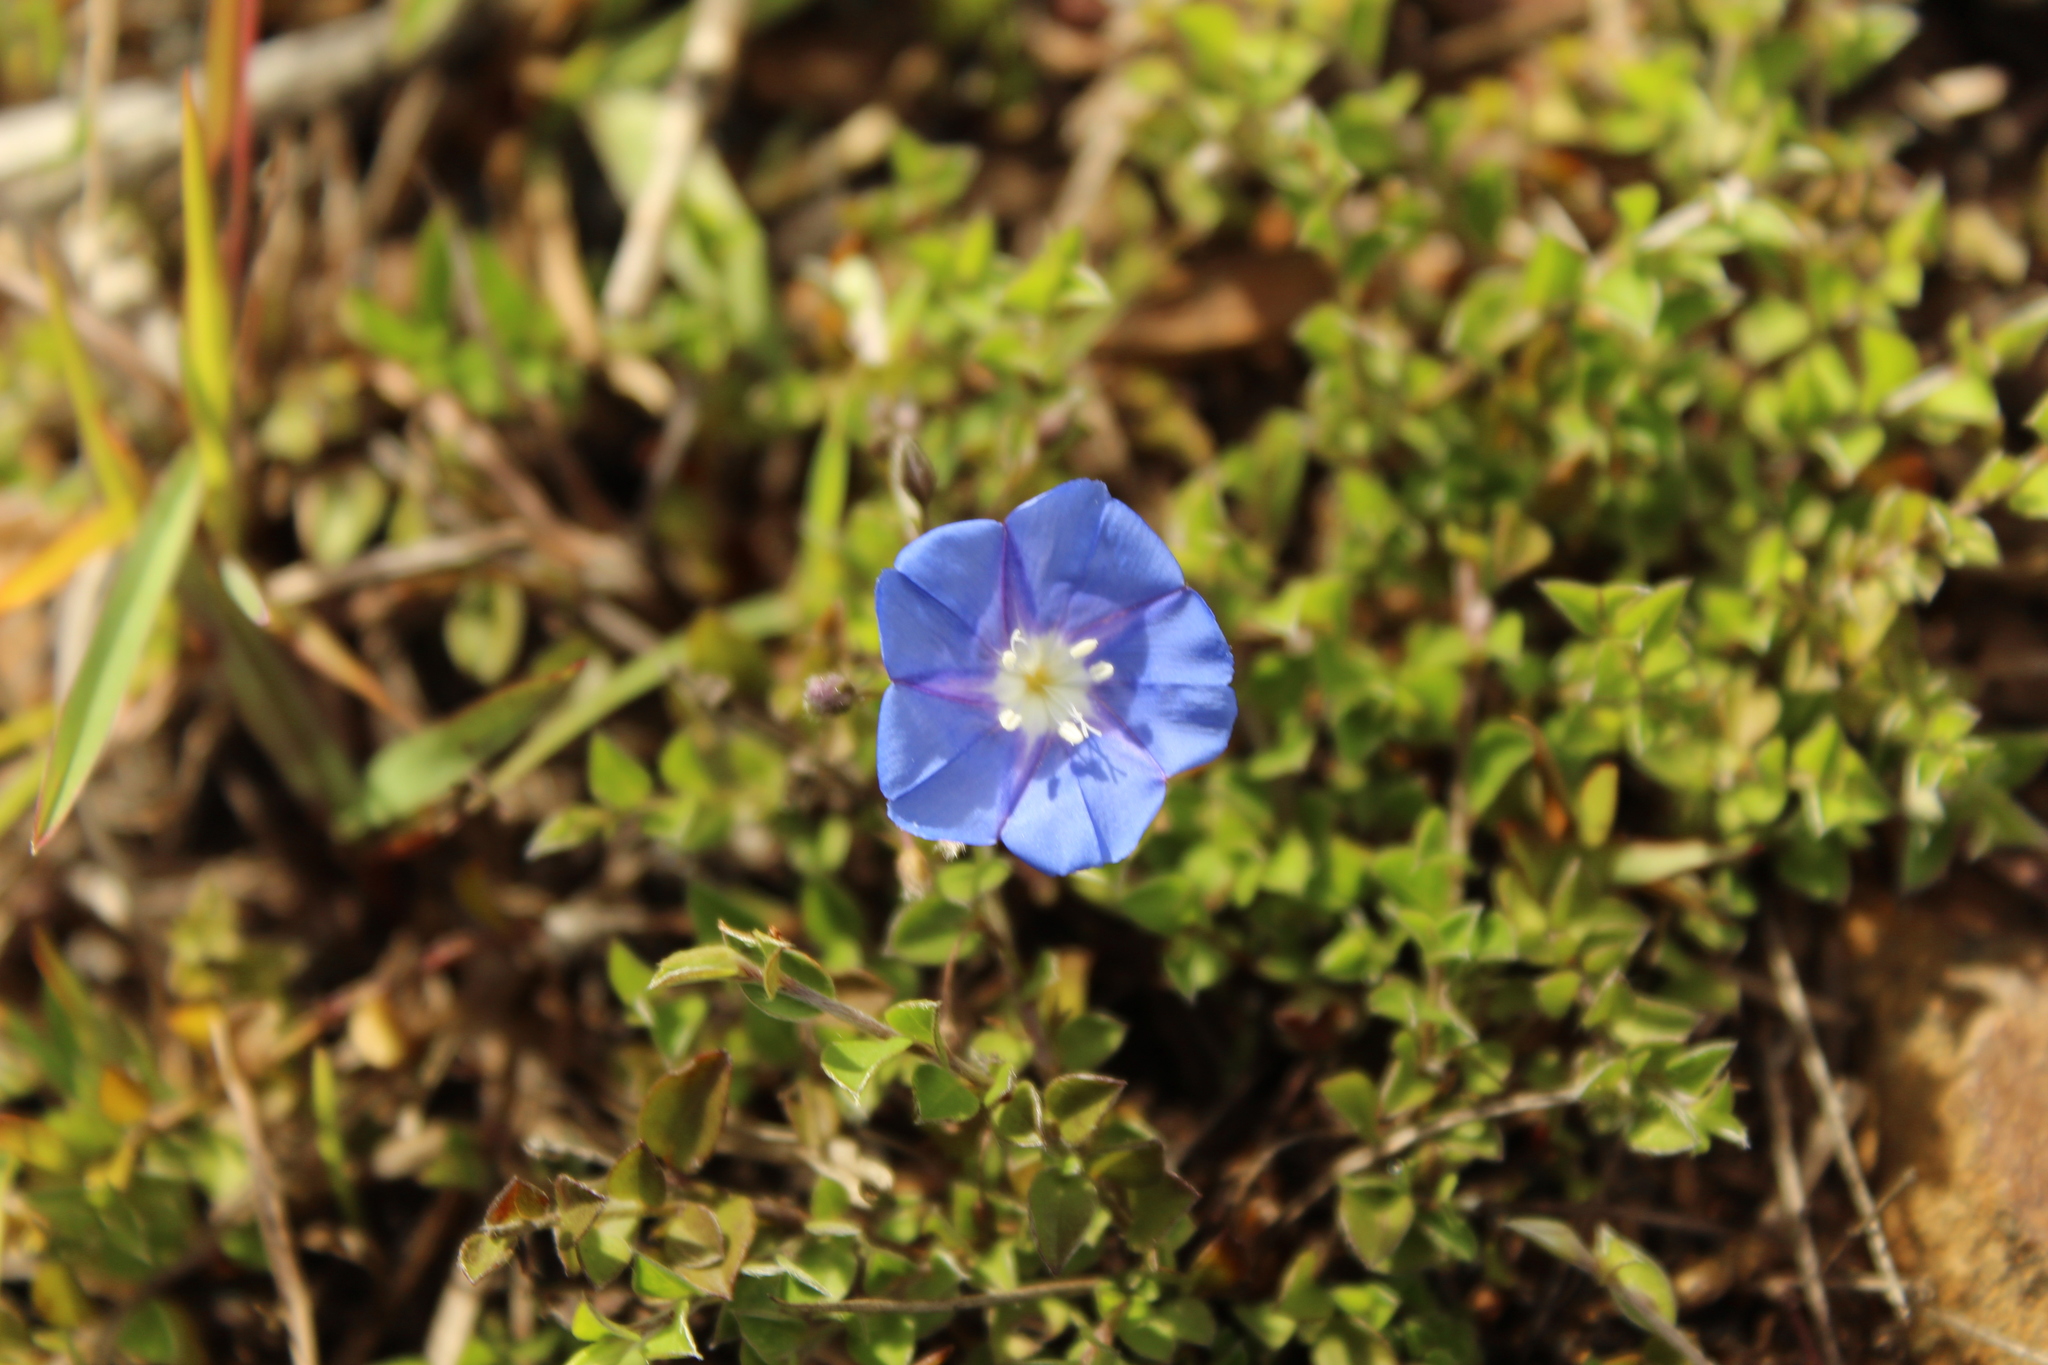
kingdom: Plantae
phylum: Tracheophyta
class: Magnoliopsida
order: Solanales
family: Convolvulaceae
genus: Evolvulus
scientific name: Evolvulus bogotensis
